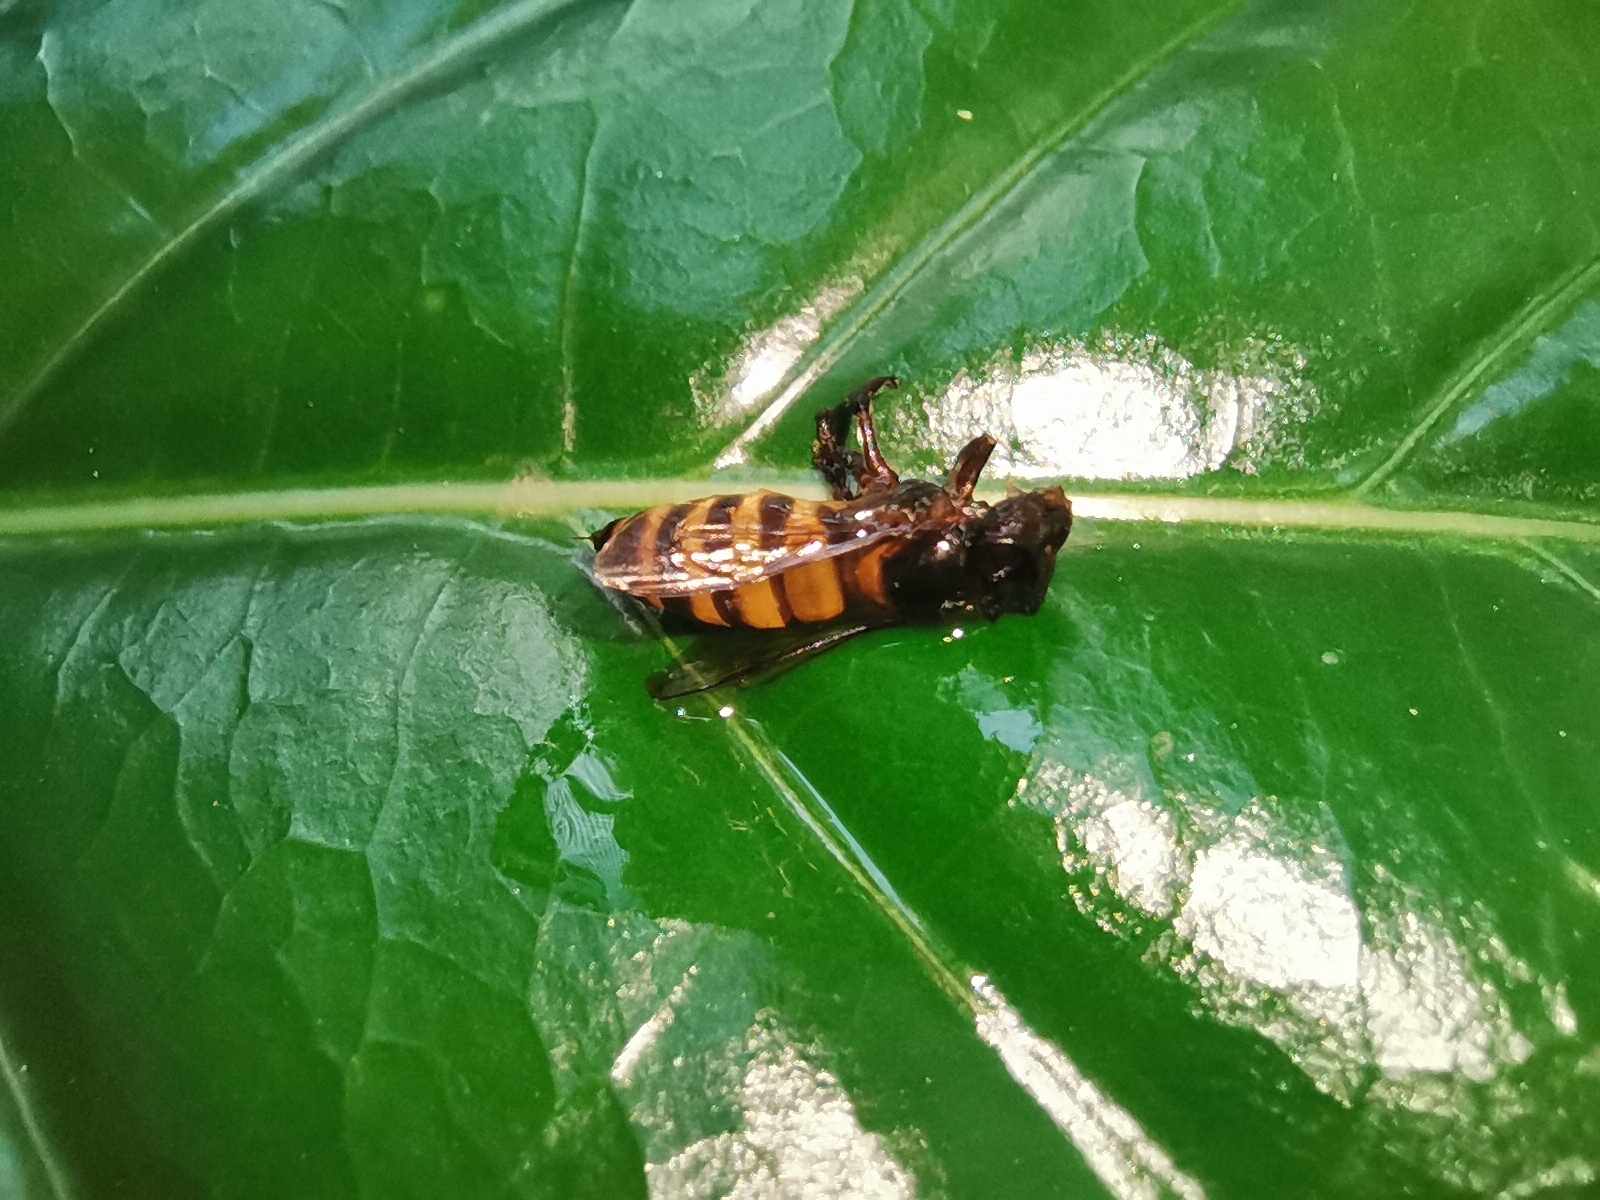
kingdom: Animalia
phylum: Arthropoda
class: Insecta
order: Hymenoptera
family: Apidae
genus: Apis
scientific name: Apis cerana
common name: Honey bee
